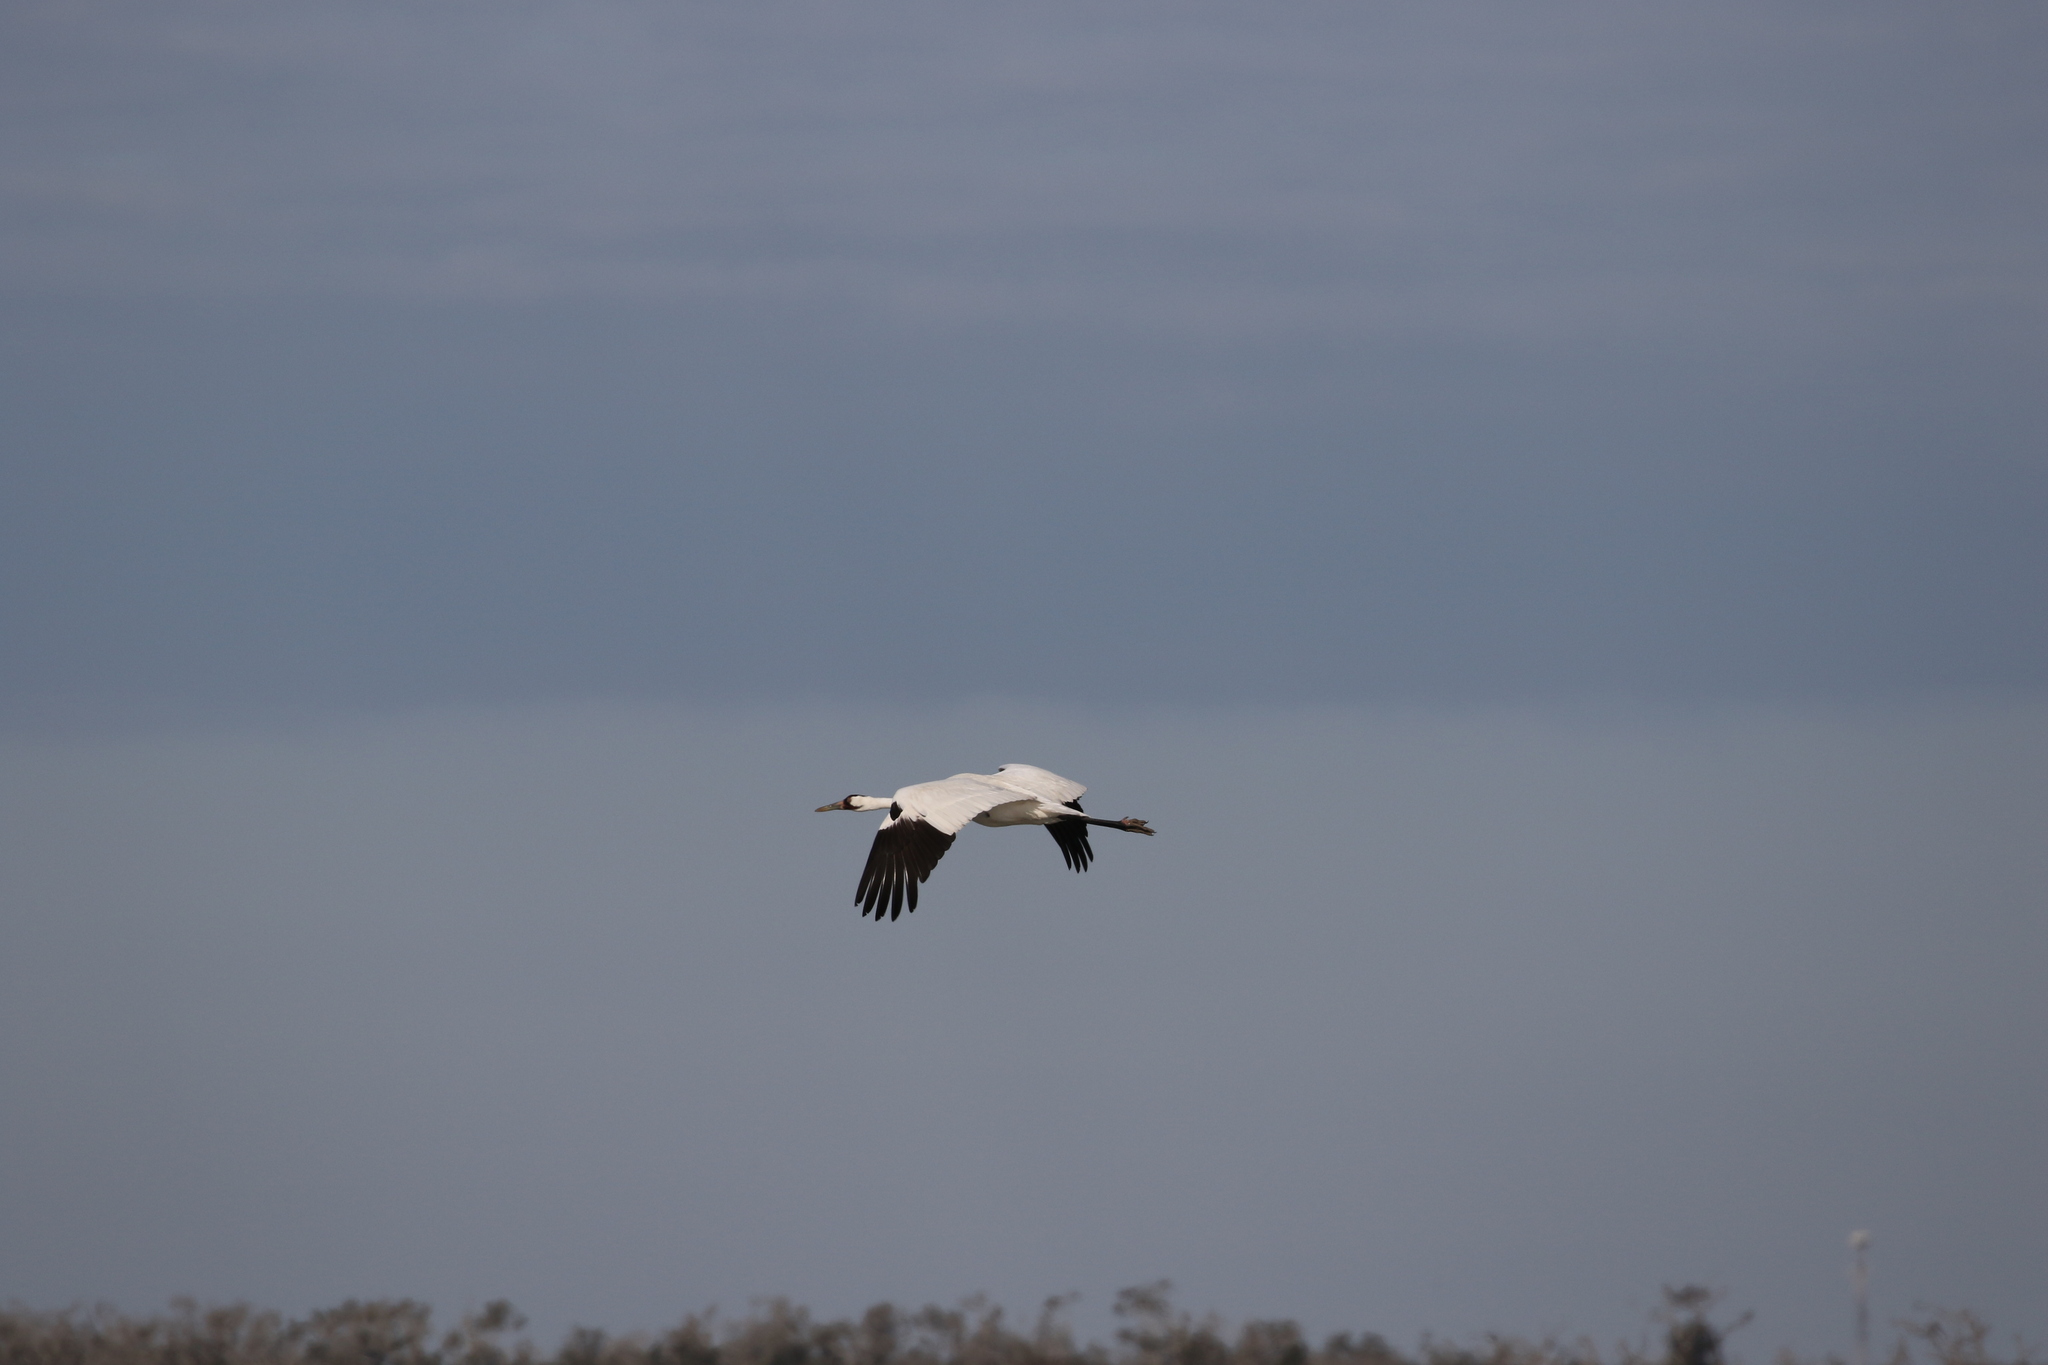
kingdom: Animalia
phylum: Chordata
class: Aves
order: Gruiformes
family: Gruidae
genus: Grus
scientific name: Grus americana
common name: Whooping crane
